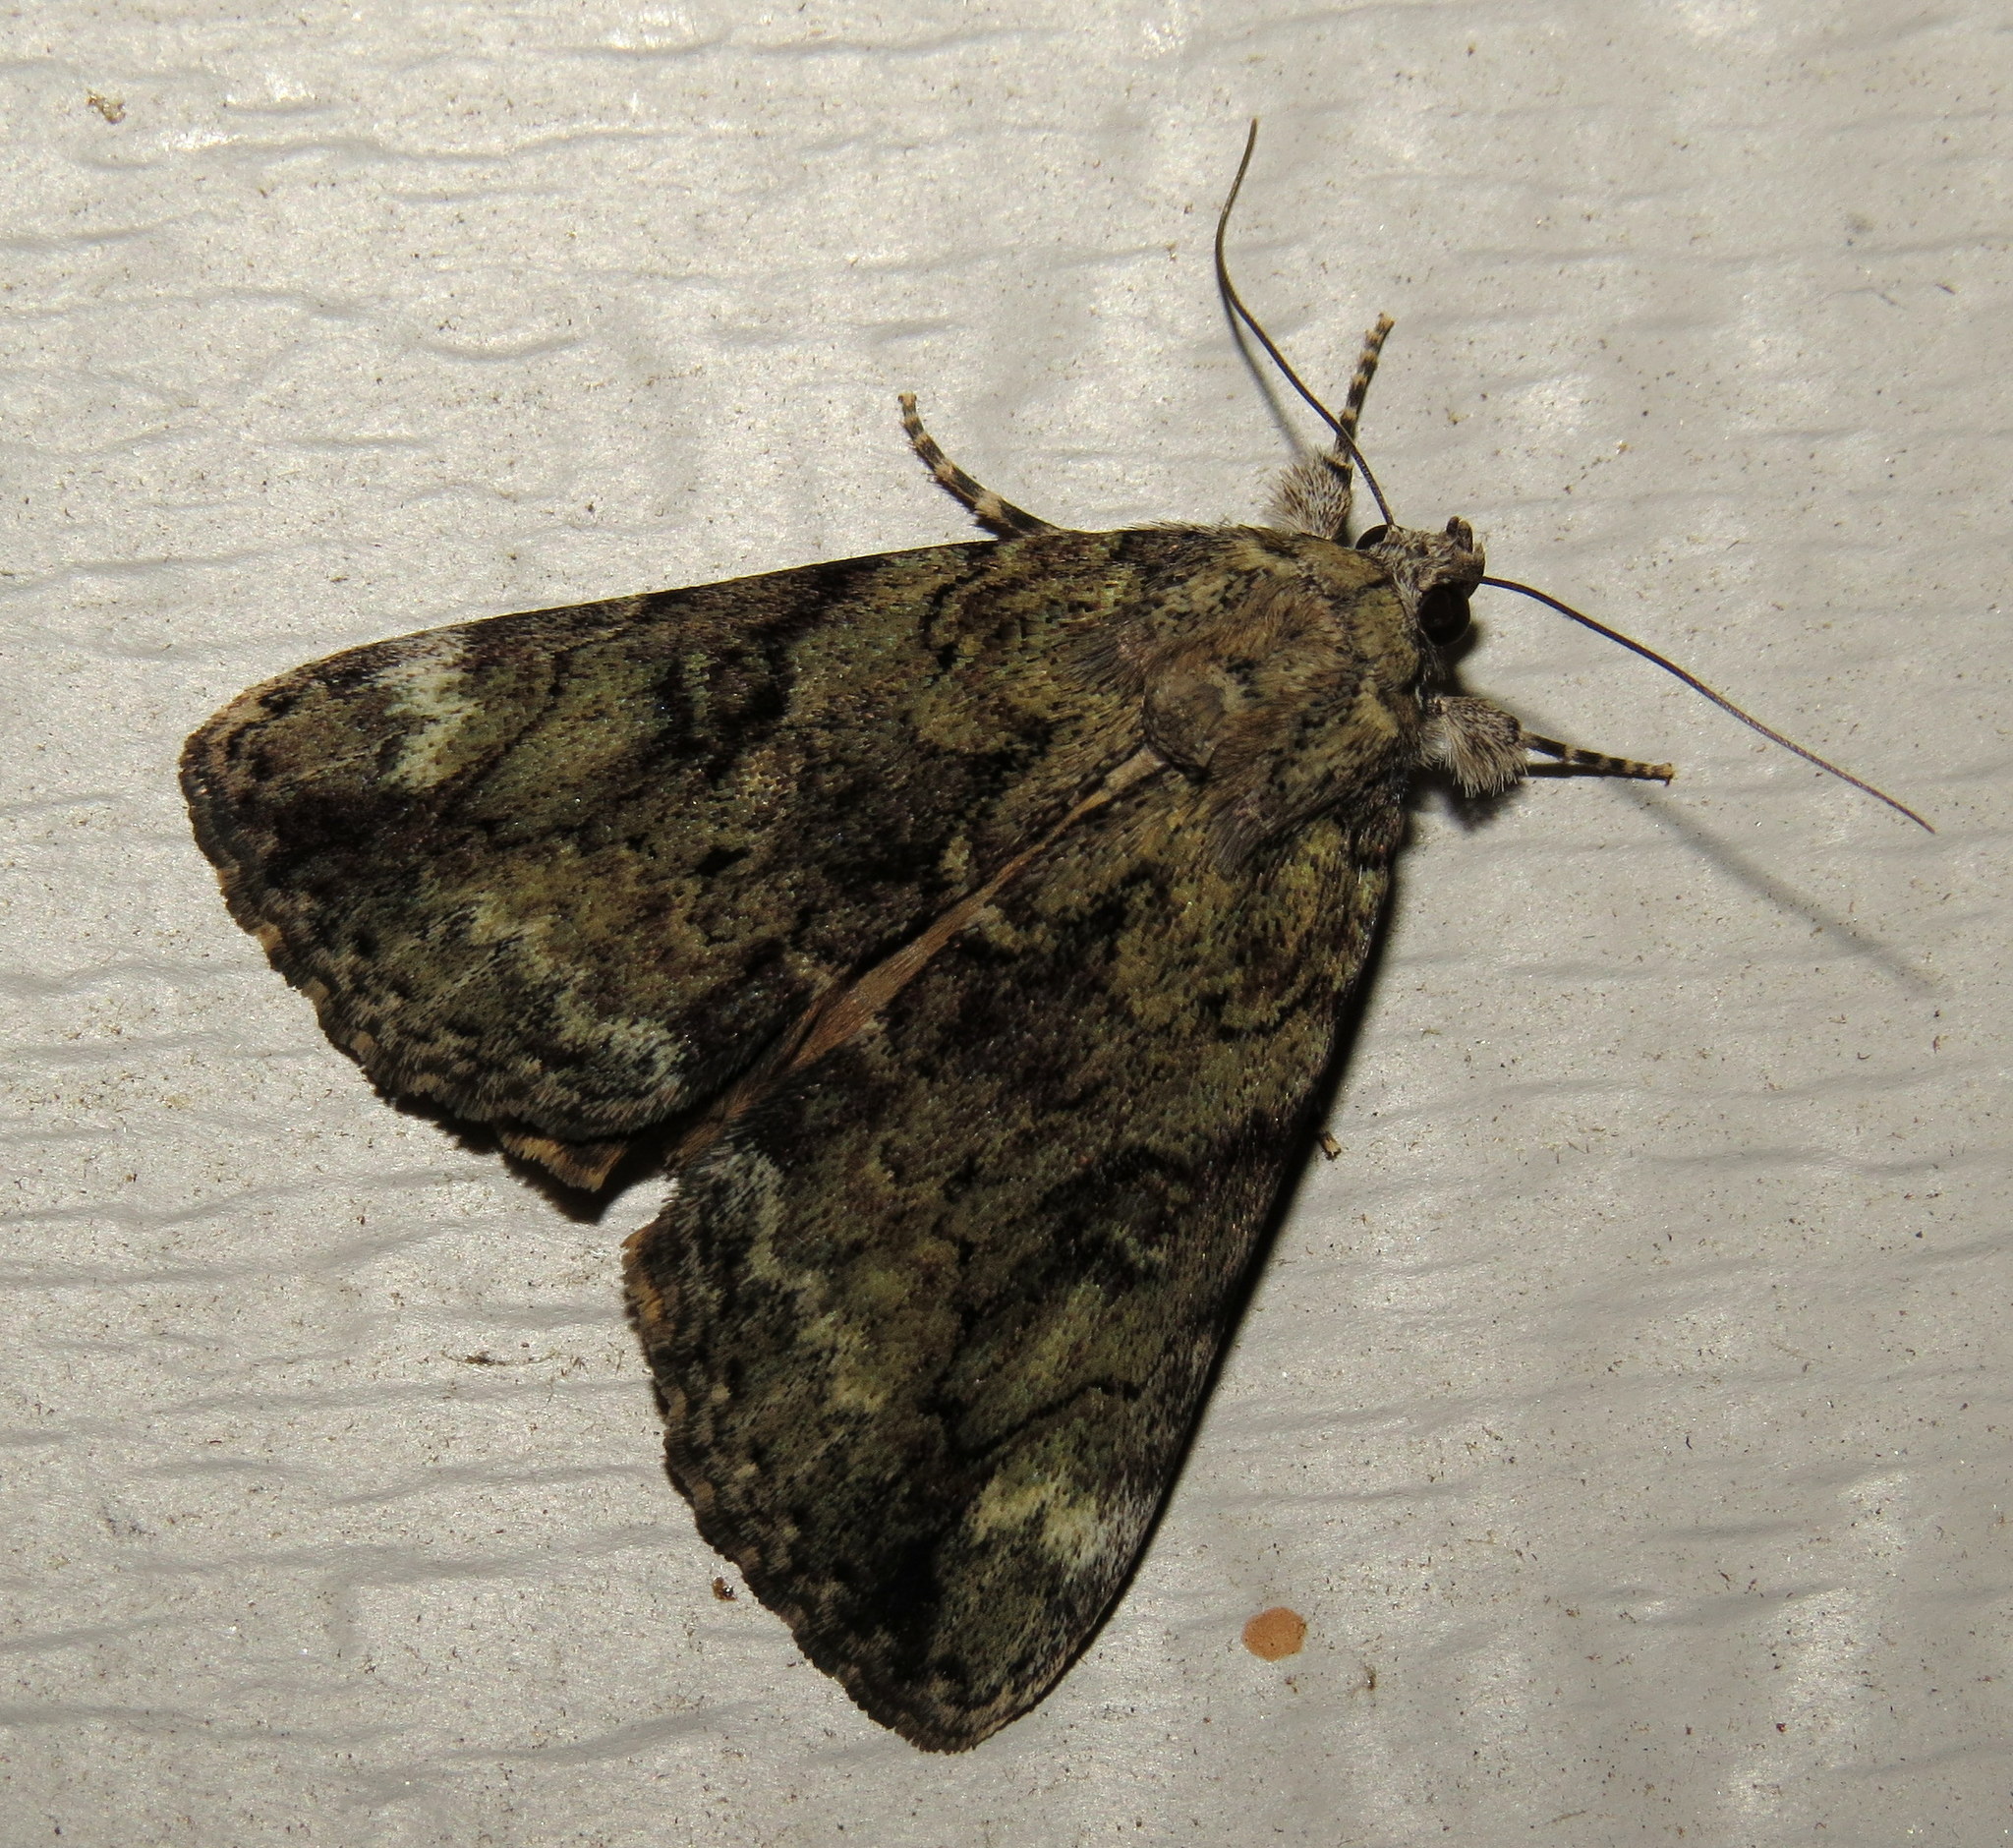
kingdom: Animalia
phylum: Arthropoda
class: Insecta
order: Lepidoptera
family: Erebidae
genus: Catocala
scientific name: Catocala micronympha
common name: Little nymph underwing
